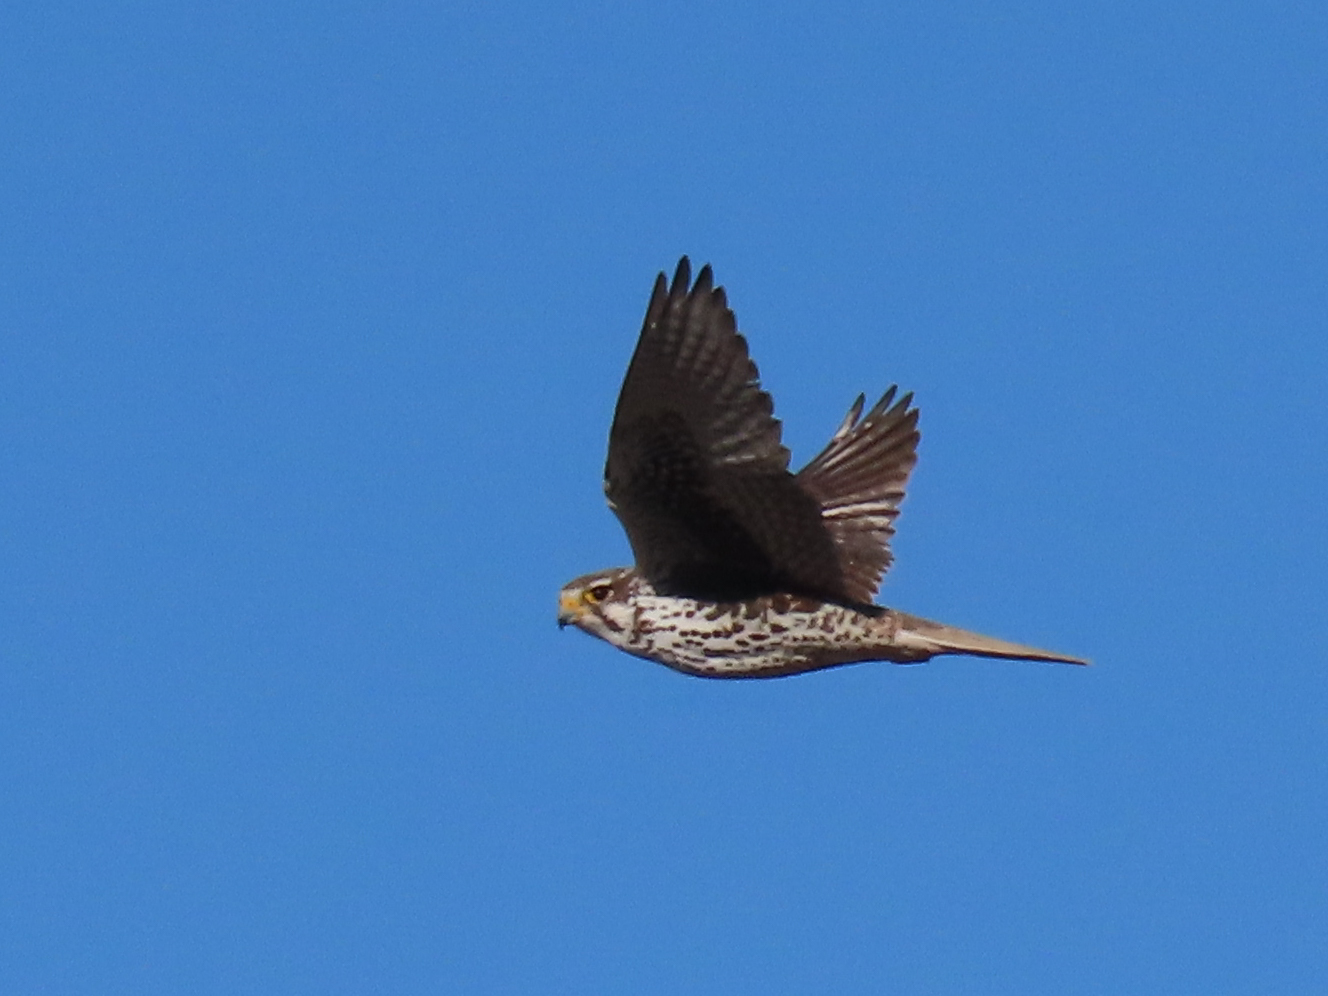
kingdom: Animalia
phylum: Chordata
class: Aves
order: Falconiformes
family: Falconidae
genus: Falco
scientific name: Falco mexicanus
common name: Prairie falcon
